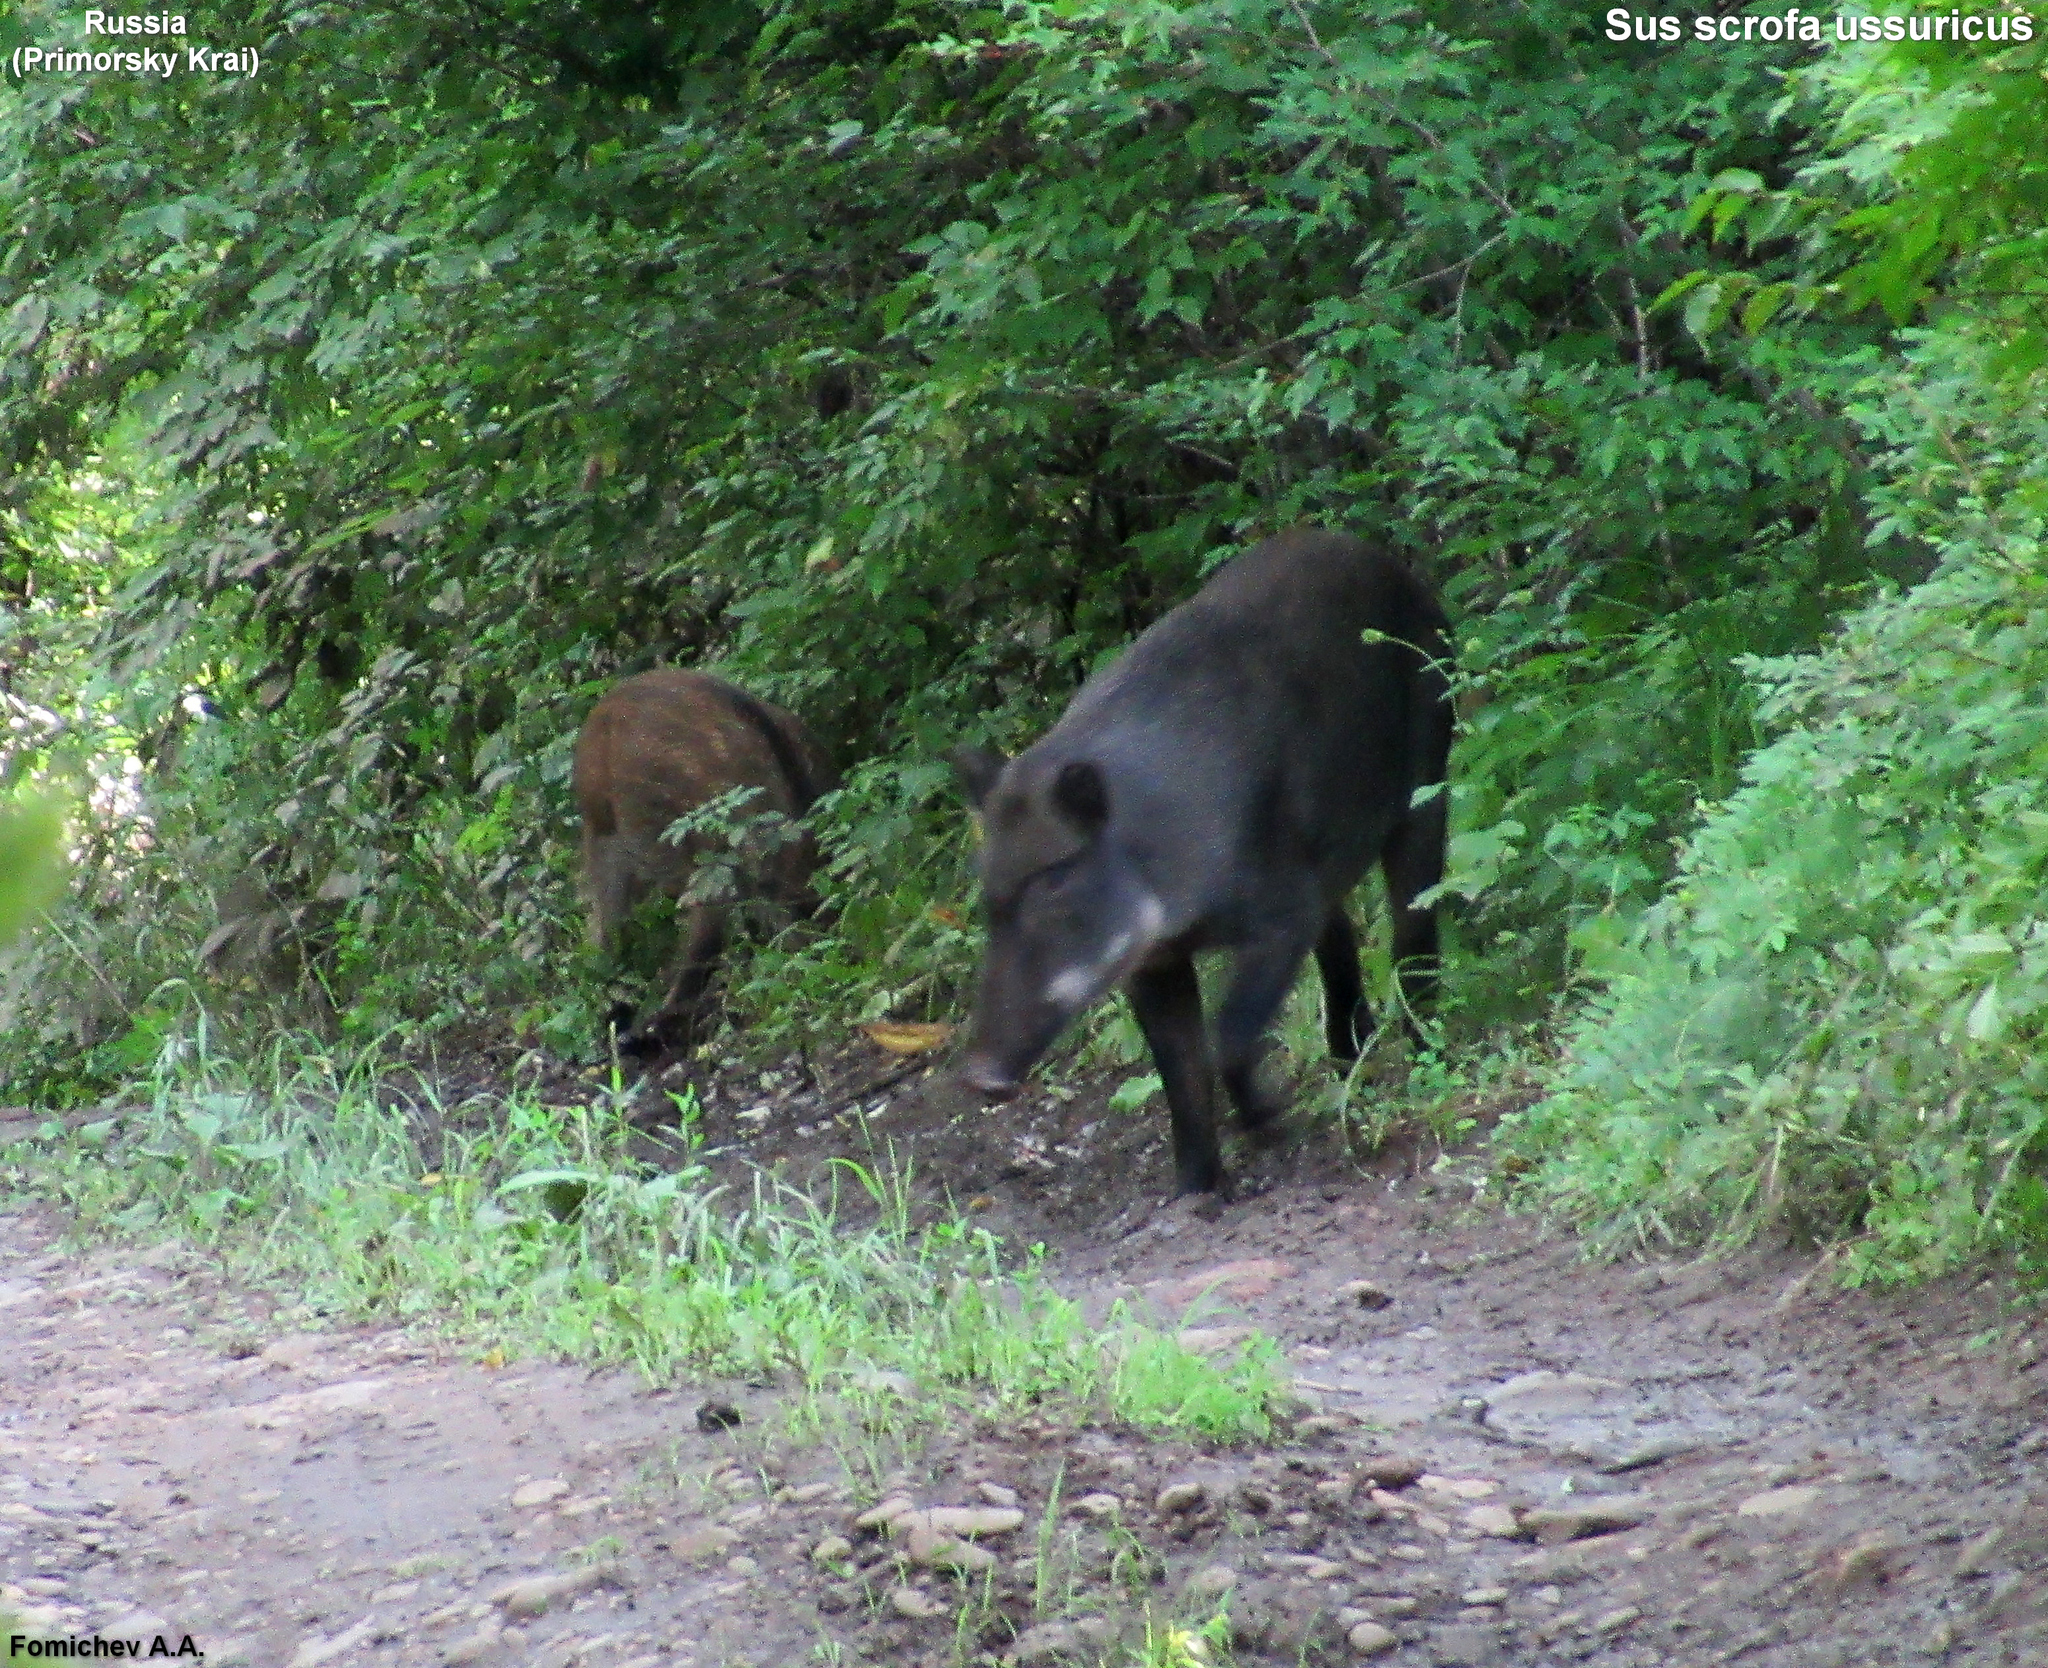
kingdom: Animalia
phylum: Chordata
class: Mammalia
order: Artiodactyla
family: Suidae
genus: Sus
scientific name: Sus scrofa
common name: Wild boar
